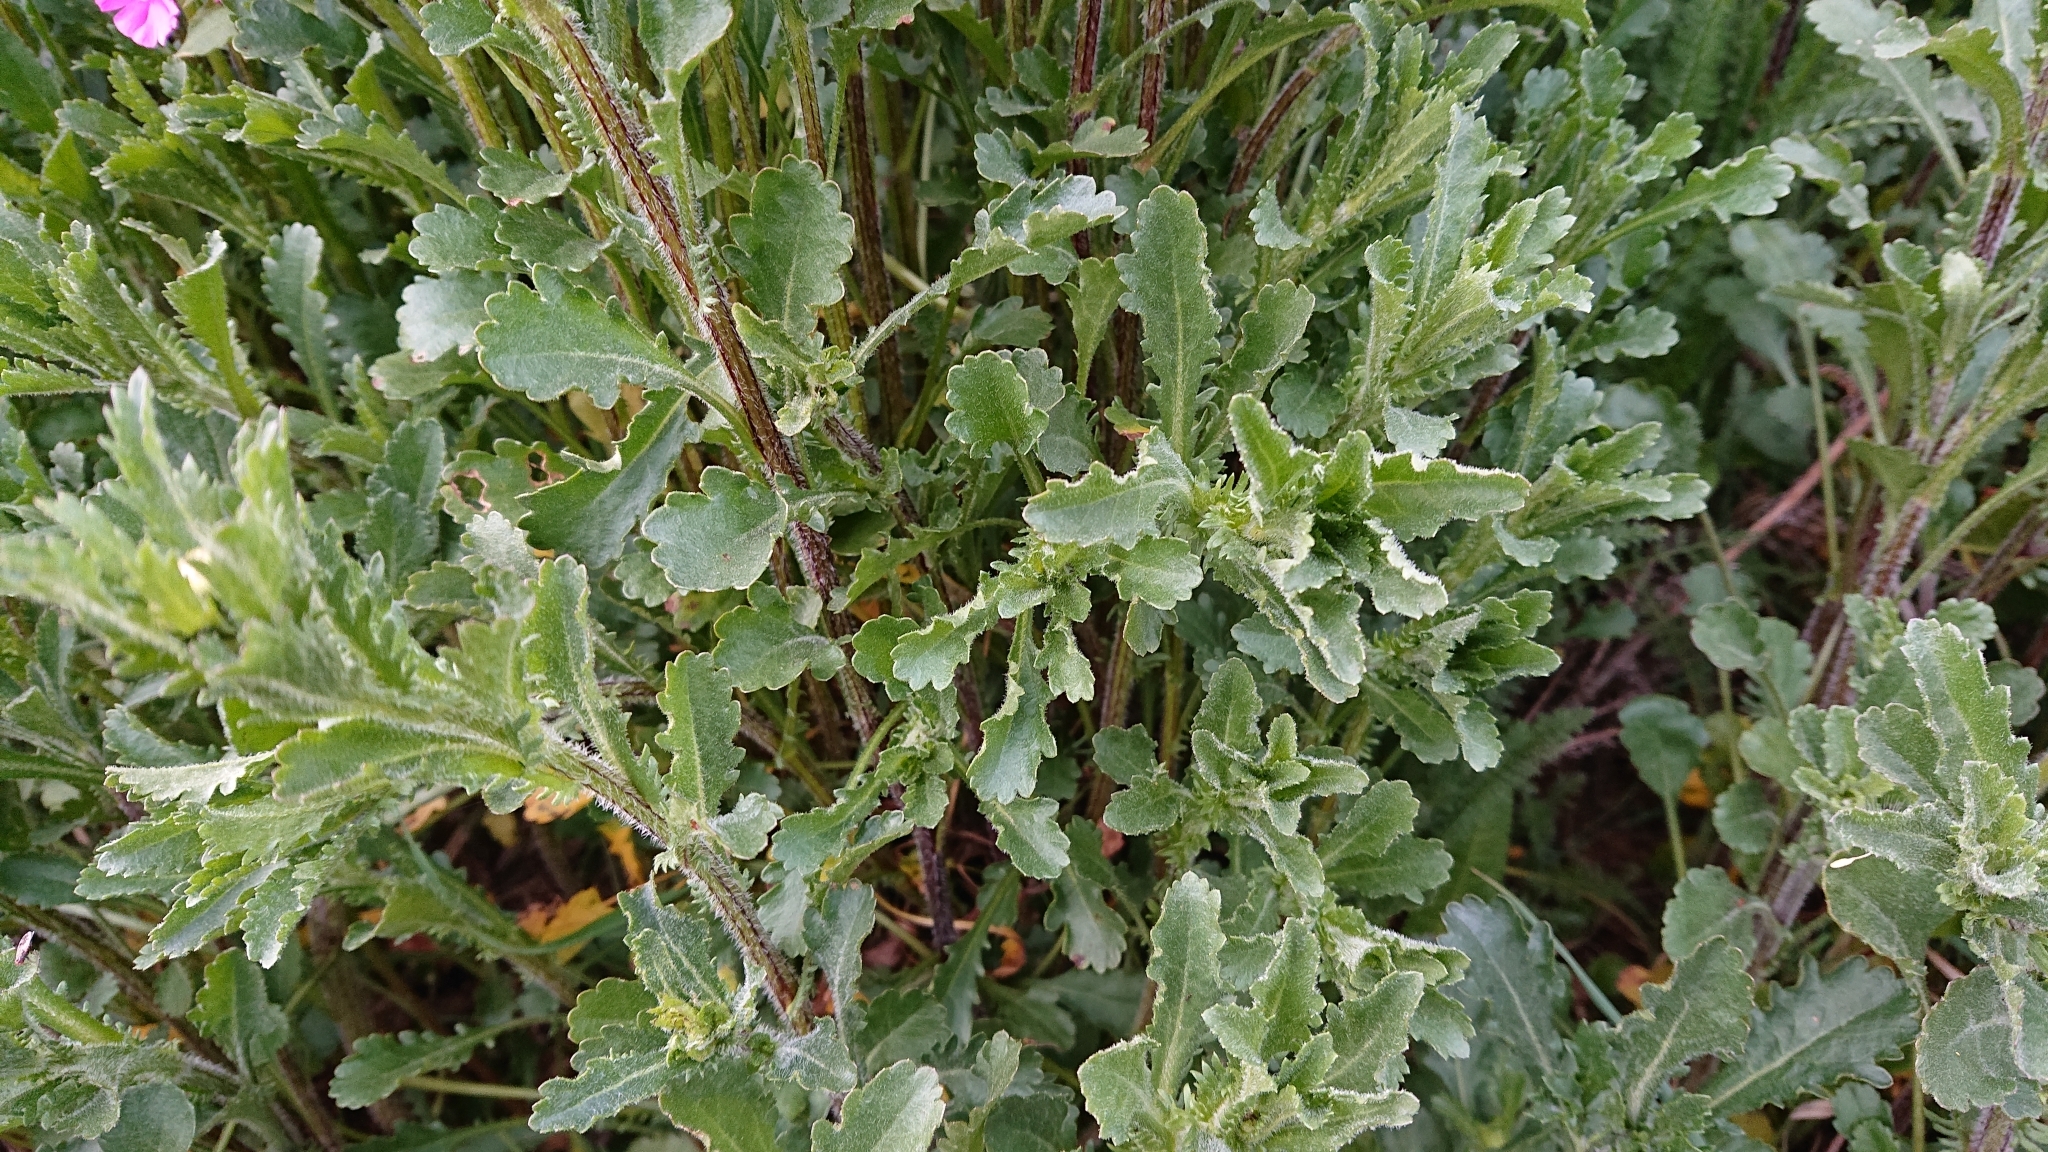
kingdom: Plantae
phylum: Tracheophyta
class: Magnoliopsida
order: Asterales
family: Asteraceae
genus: Leucanthemum
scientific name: Leucanthemum vulgare
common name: Oxeye daisy
